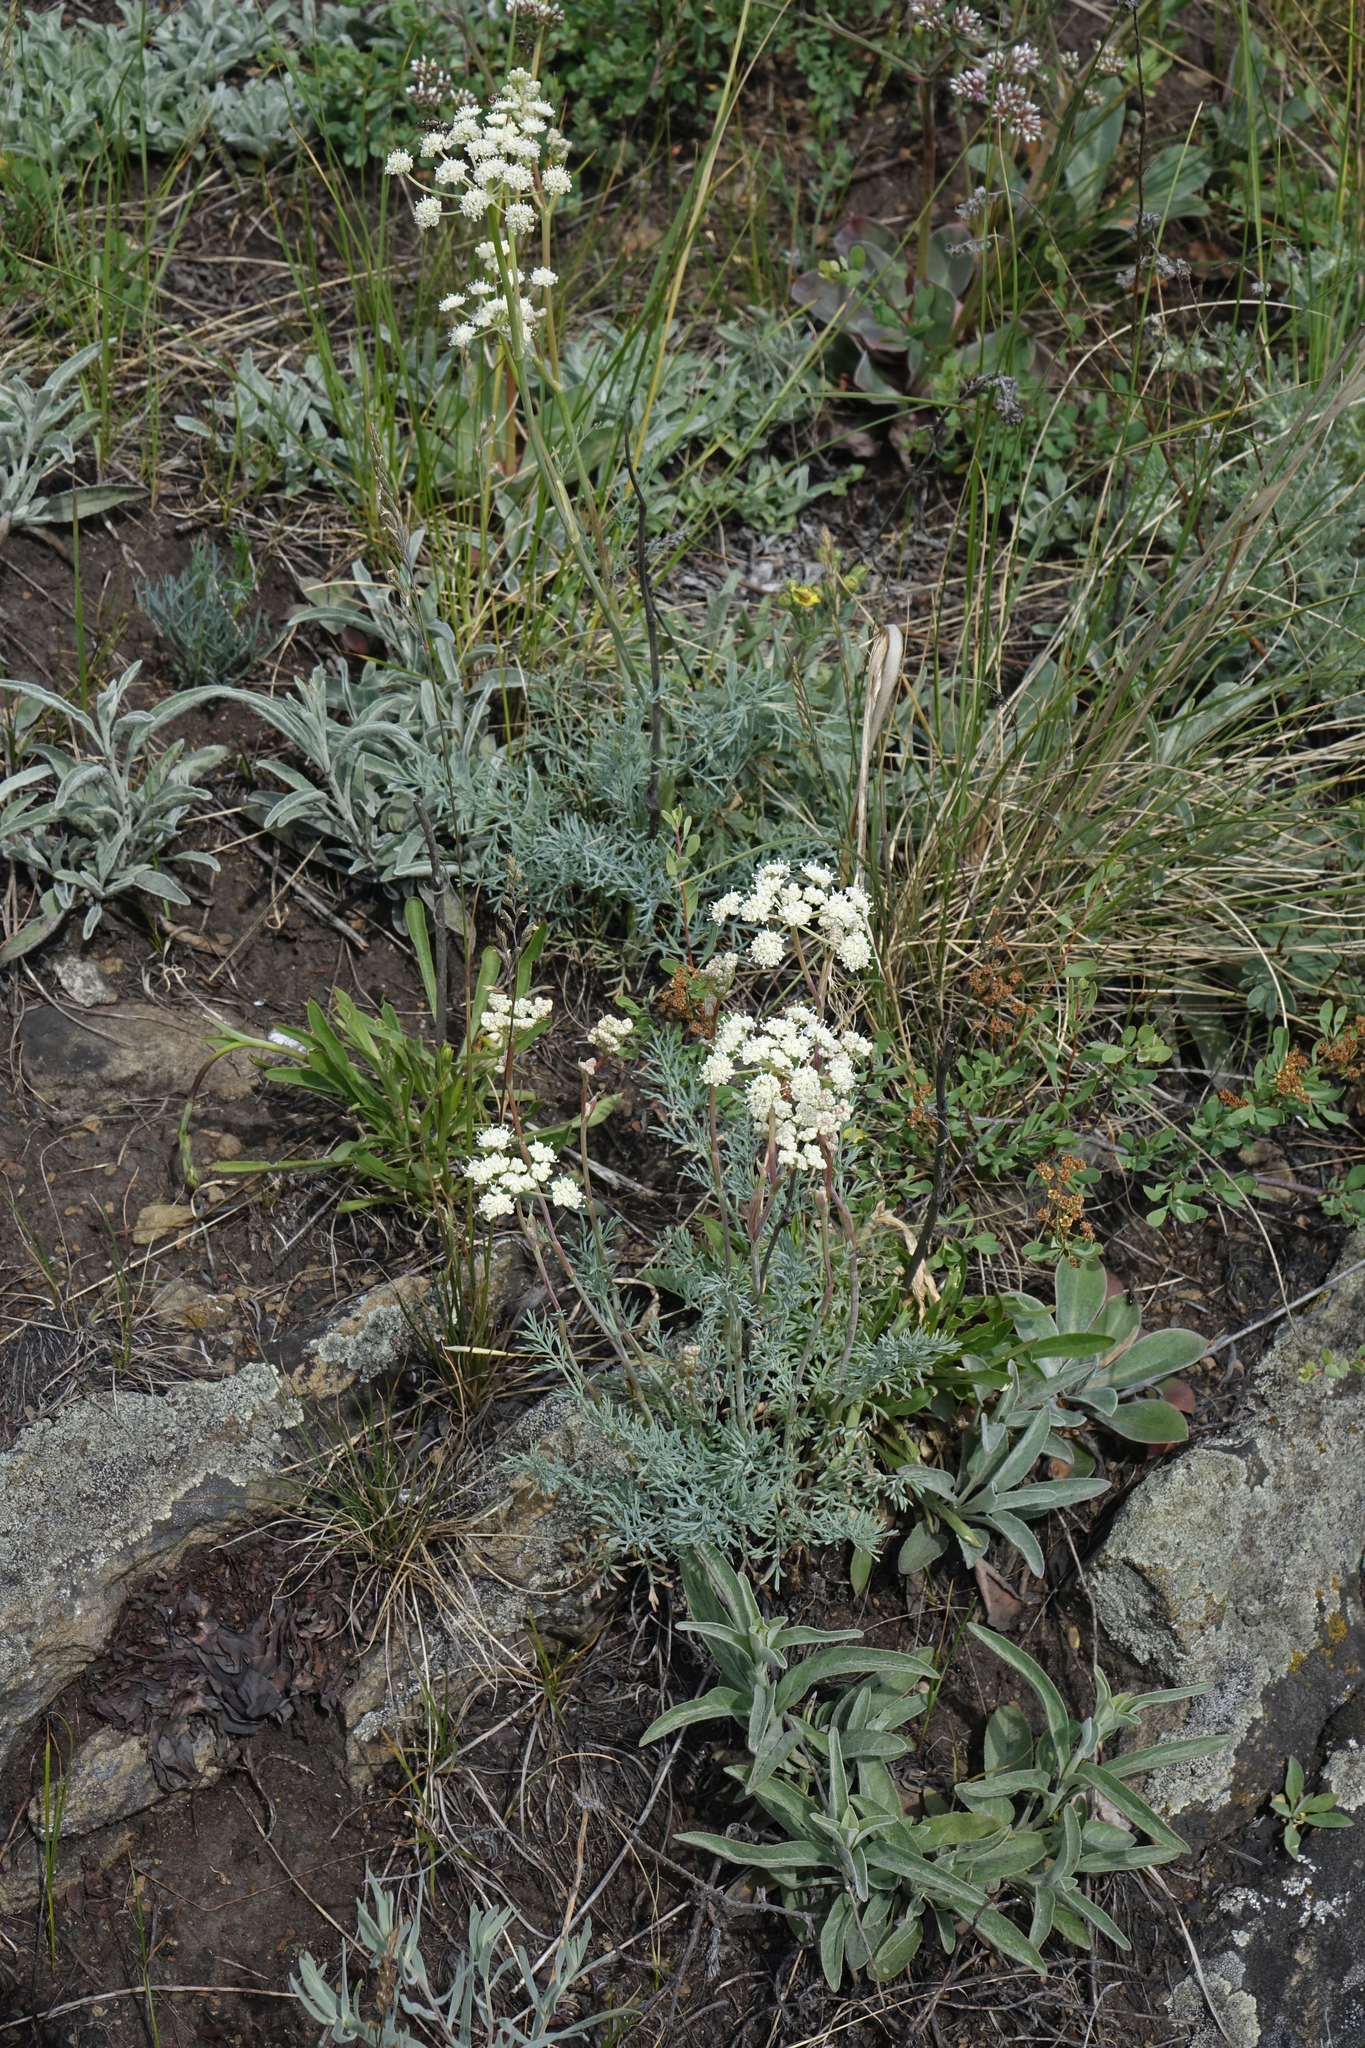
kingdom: Plantae
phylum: Tracheophyta
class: Magnoliopsida
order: Apiales
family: Apiaceae
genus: Seseli
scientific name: Seseli ledebourii
